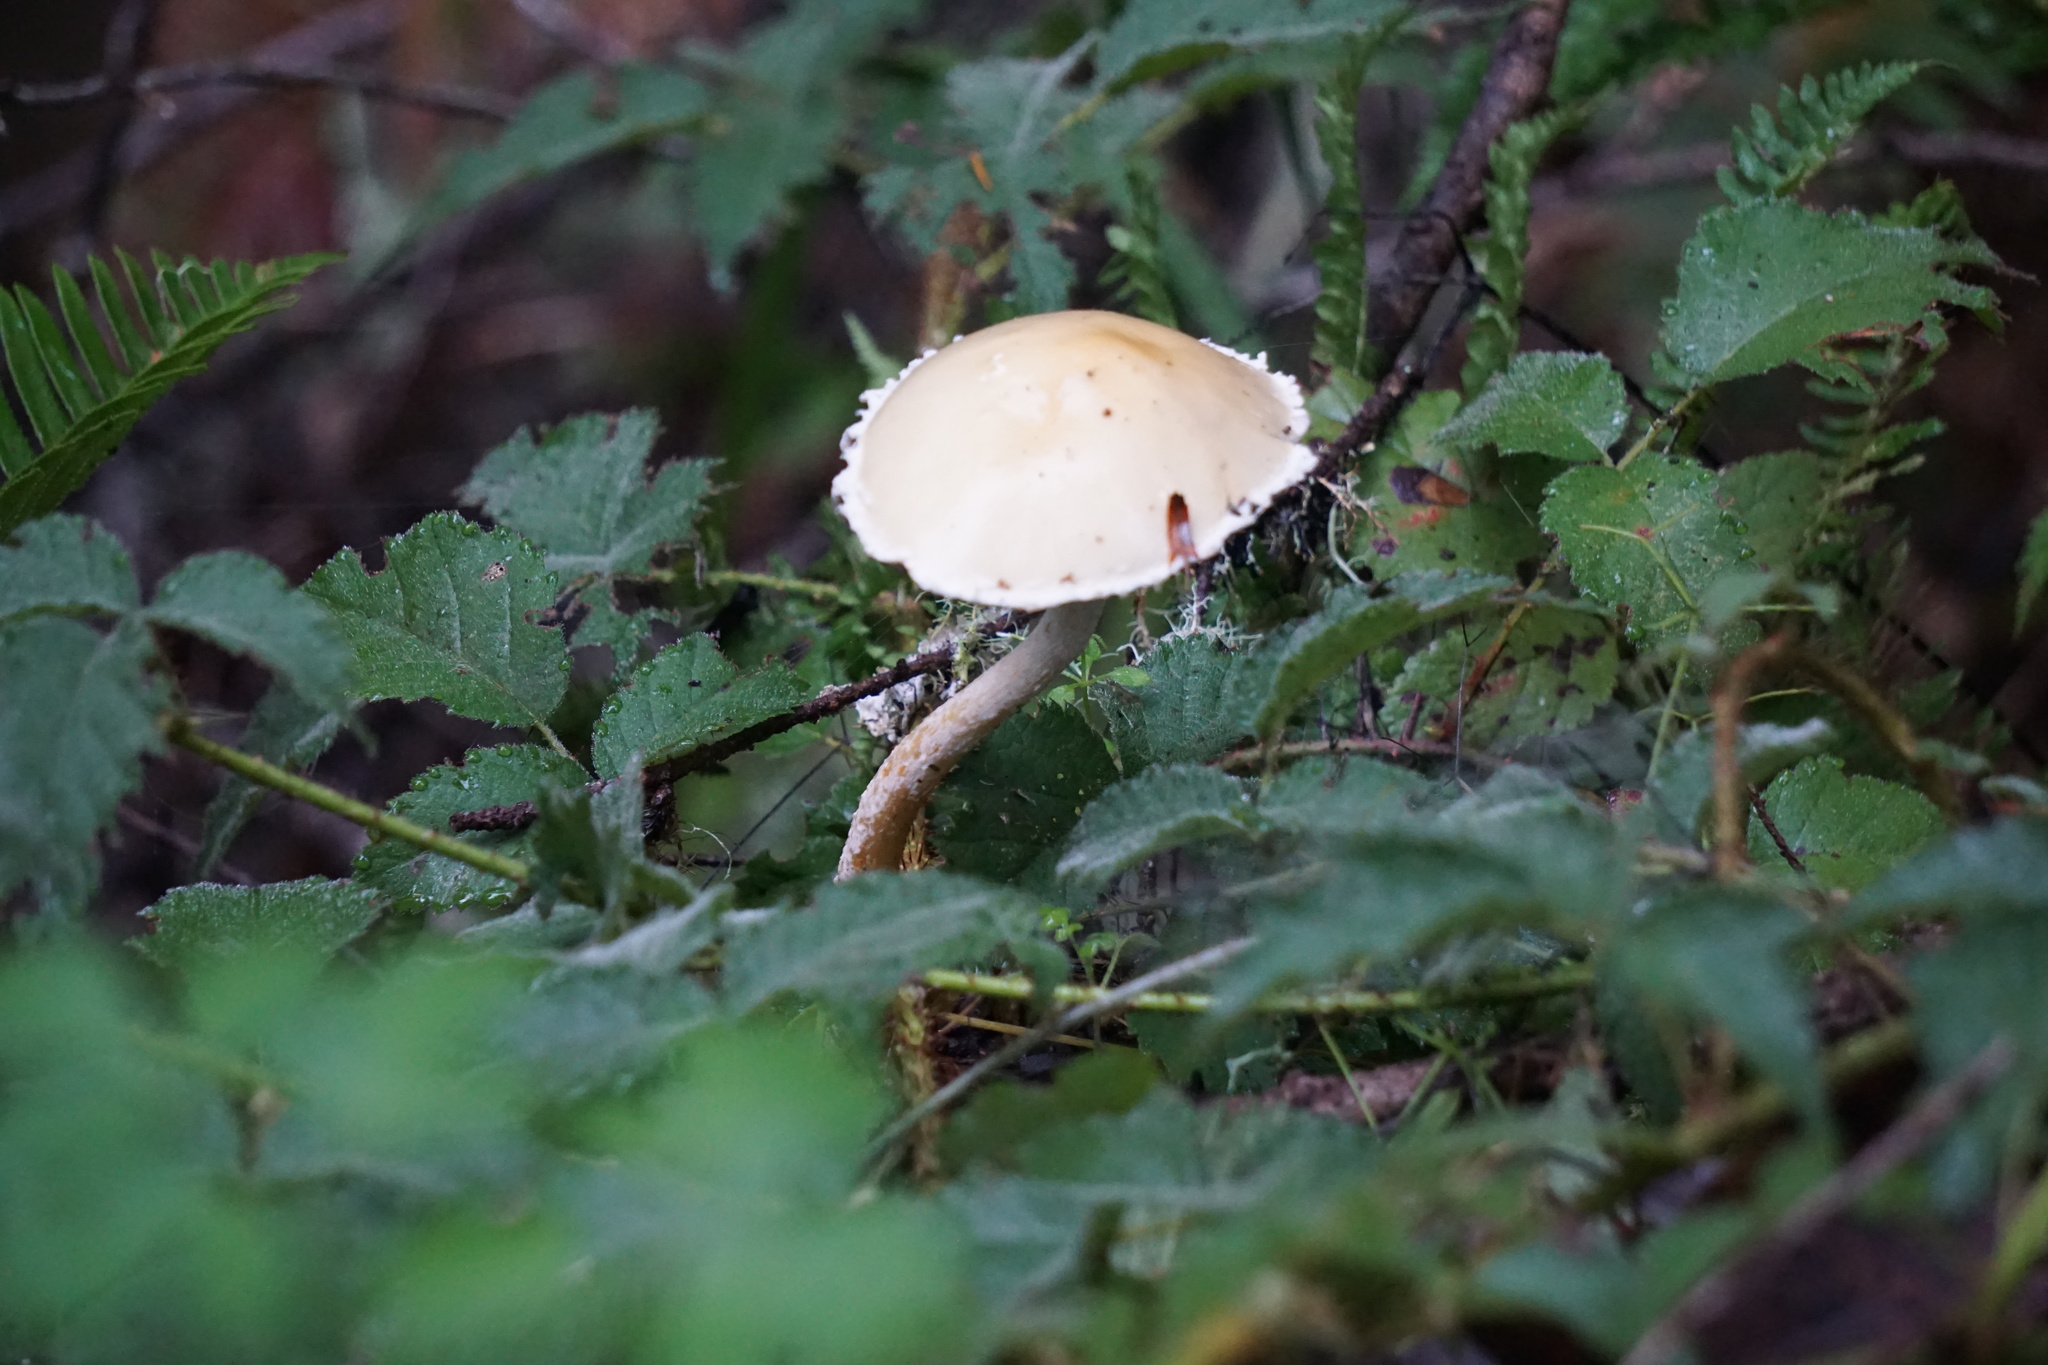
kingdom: Fungi
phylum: Basidiomycota
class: Agaricomycetes
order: Agaricales
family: Strophariaceae
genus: Stropharia
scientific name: Stropharia ambigua
